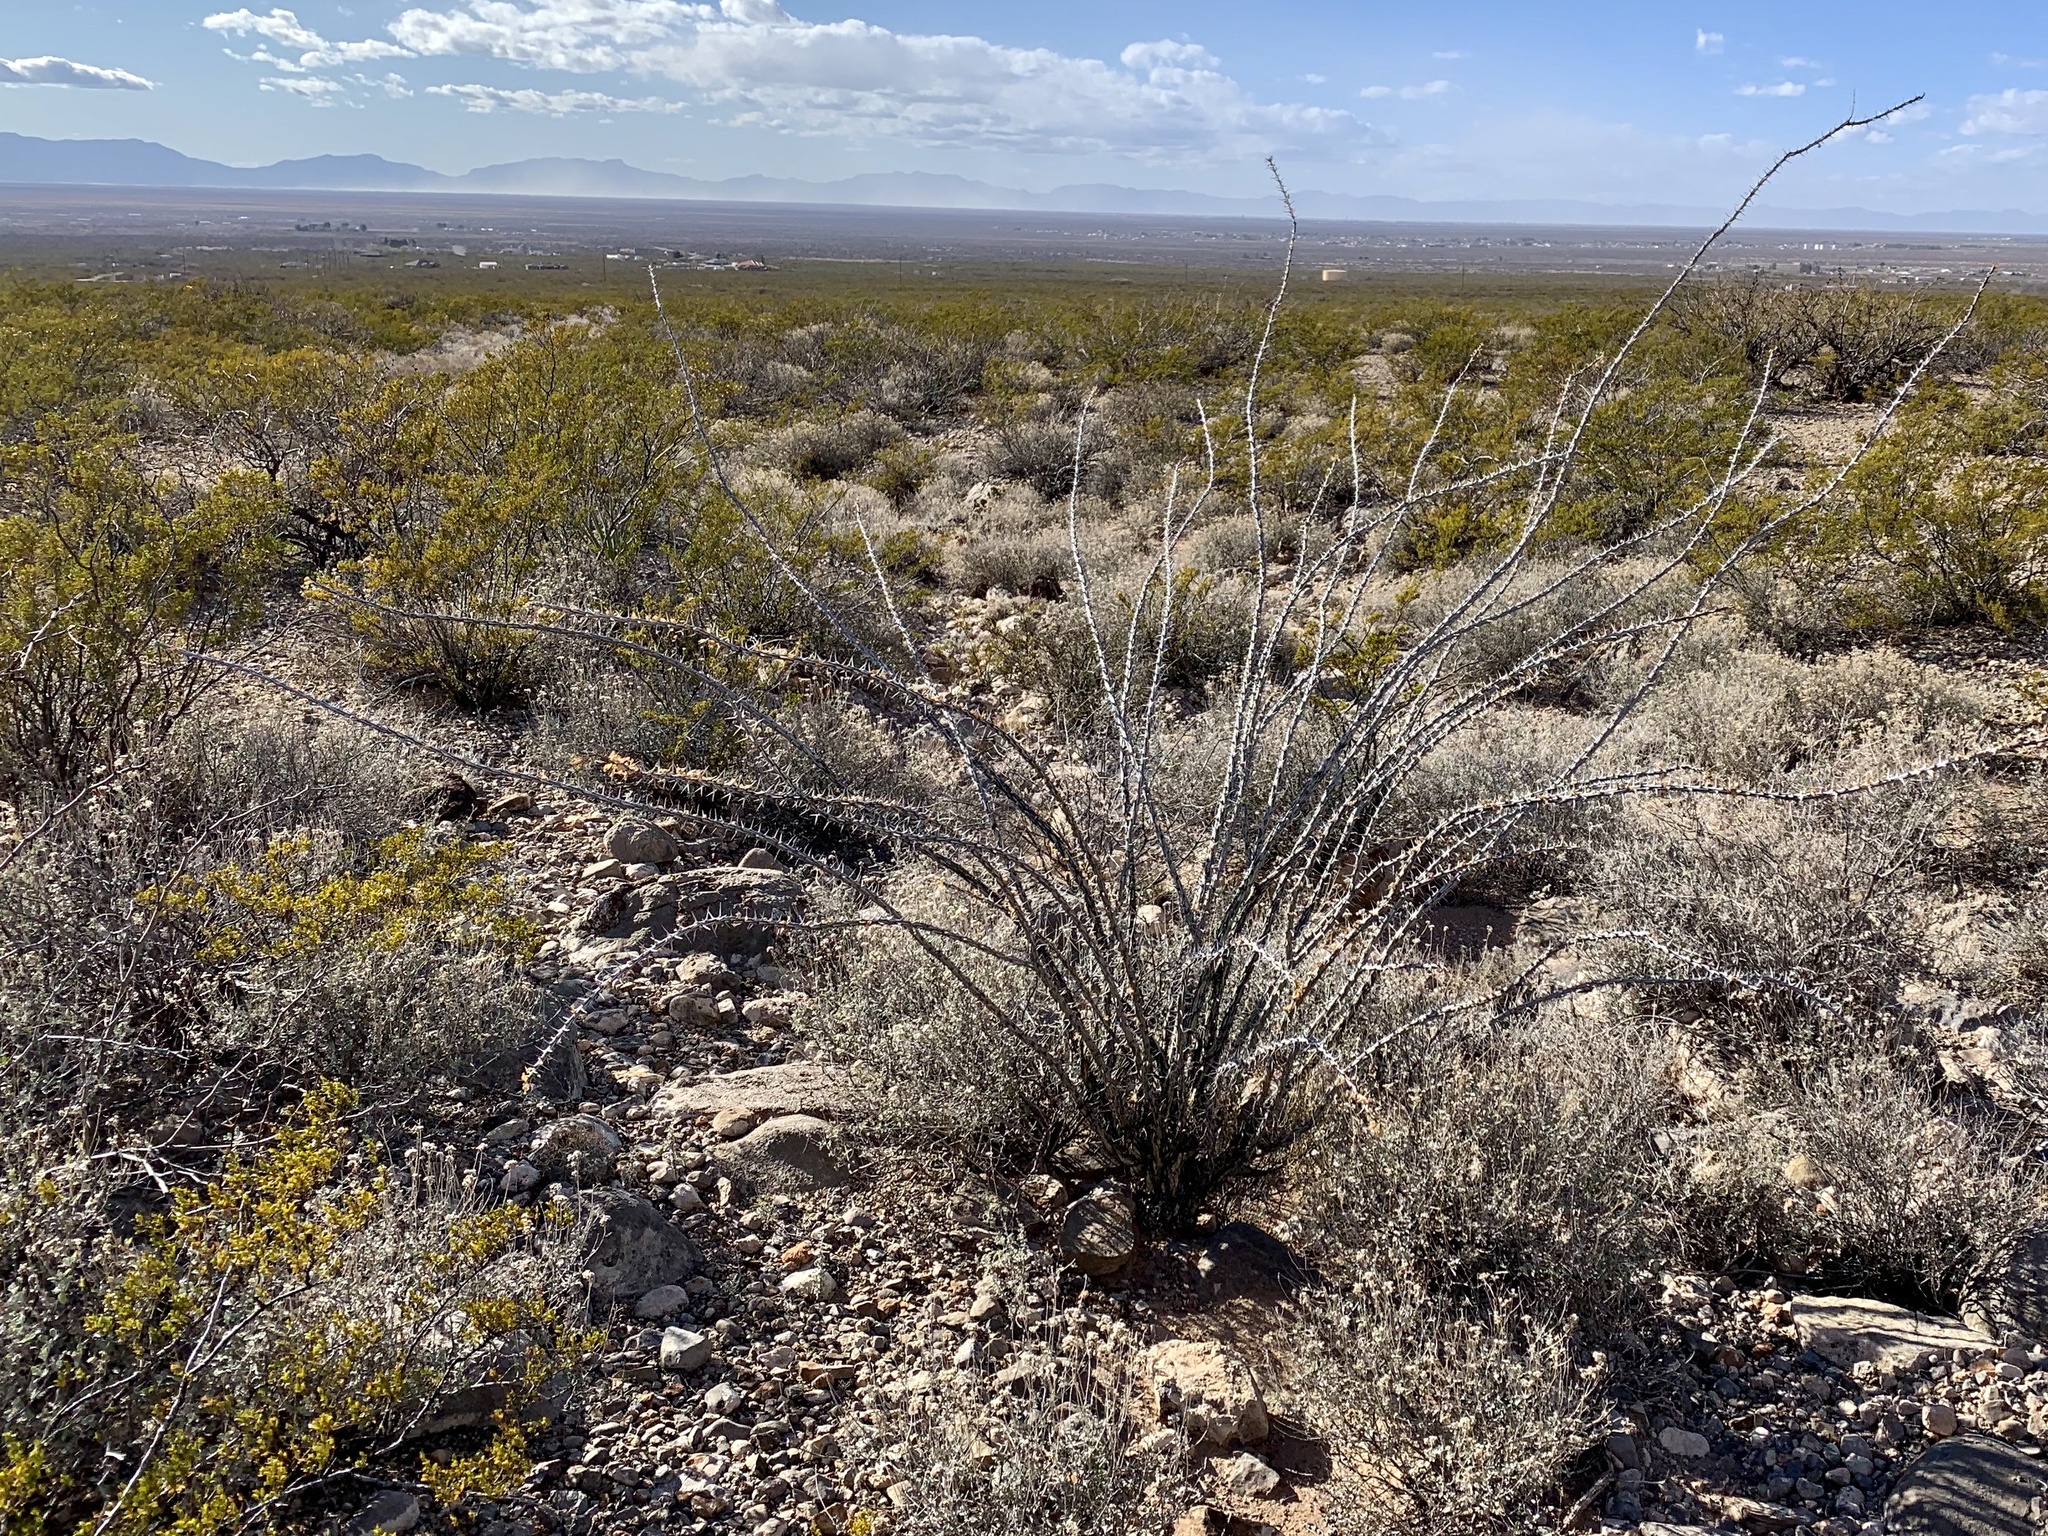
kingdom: Plantae
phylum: Tracheophyta
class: Magnoliopsida
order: Ericales
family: Fouquieriaceae
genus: Fouquieria
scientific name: Fouquieria splendens
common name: Vine-cactus
